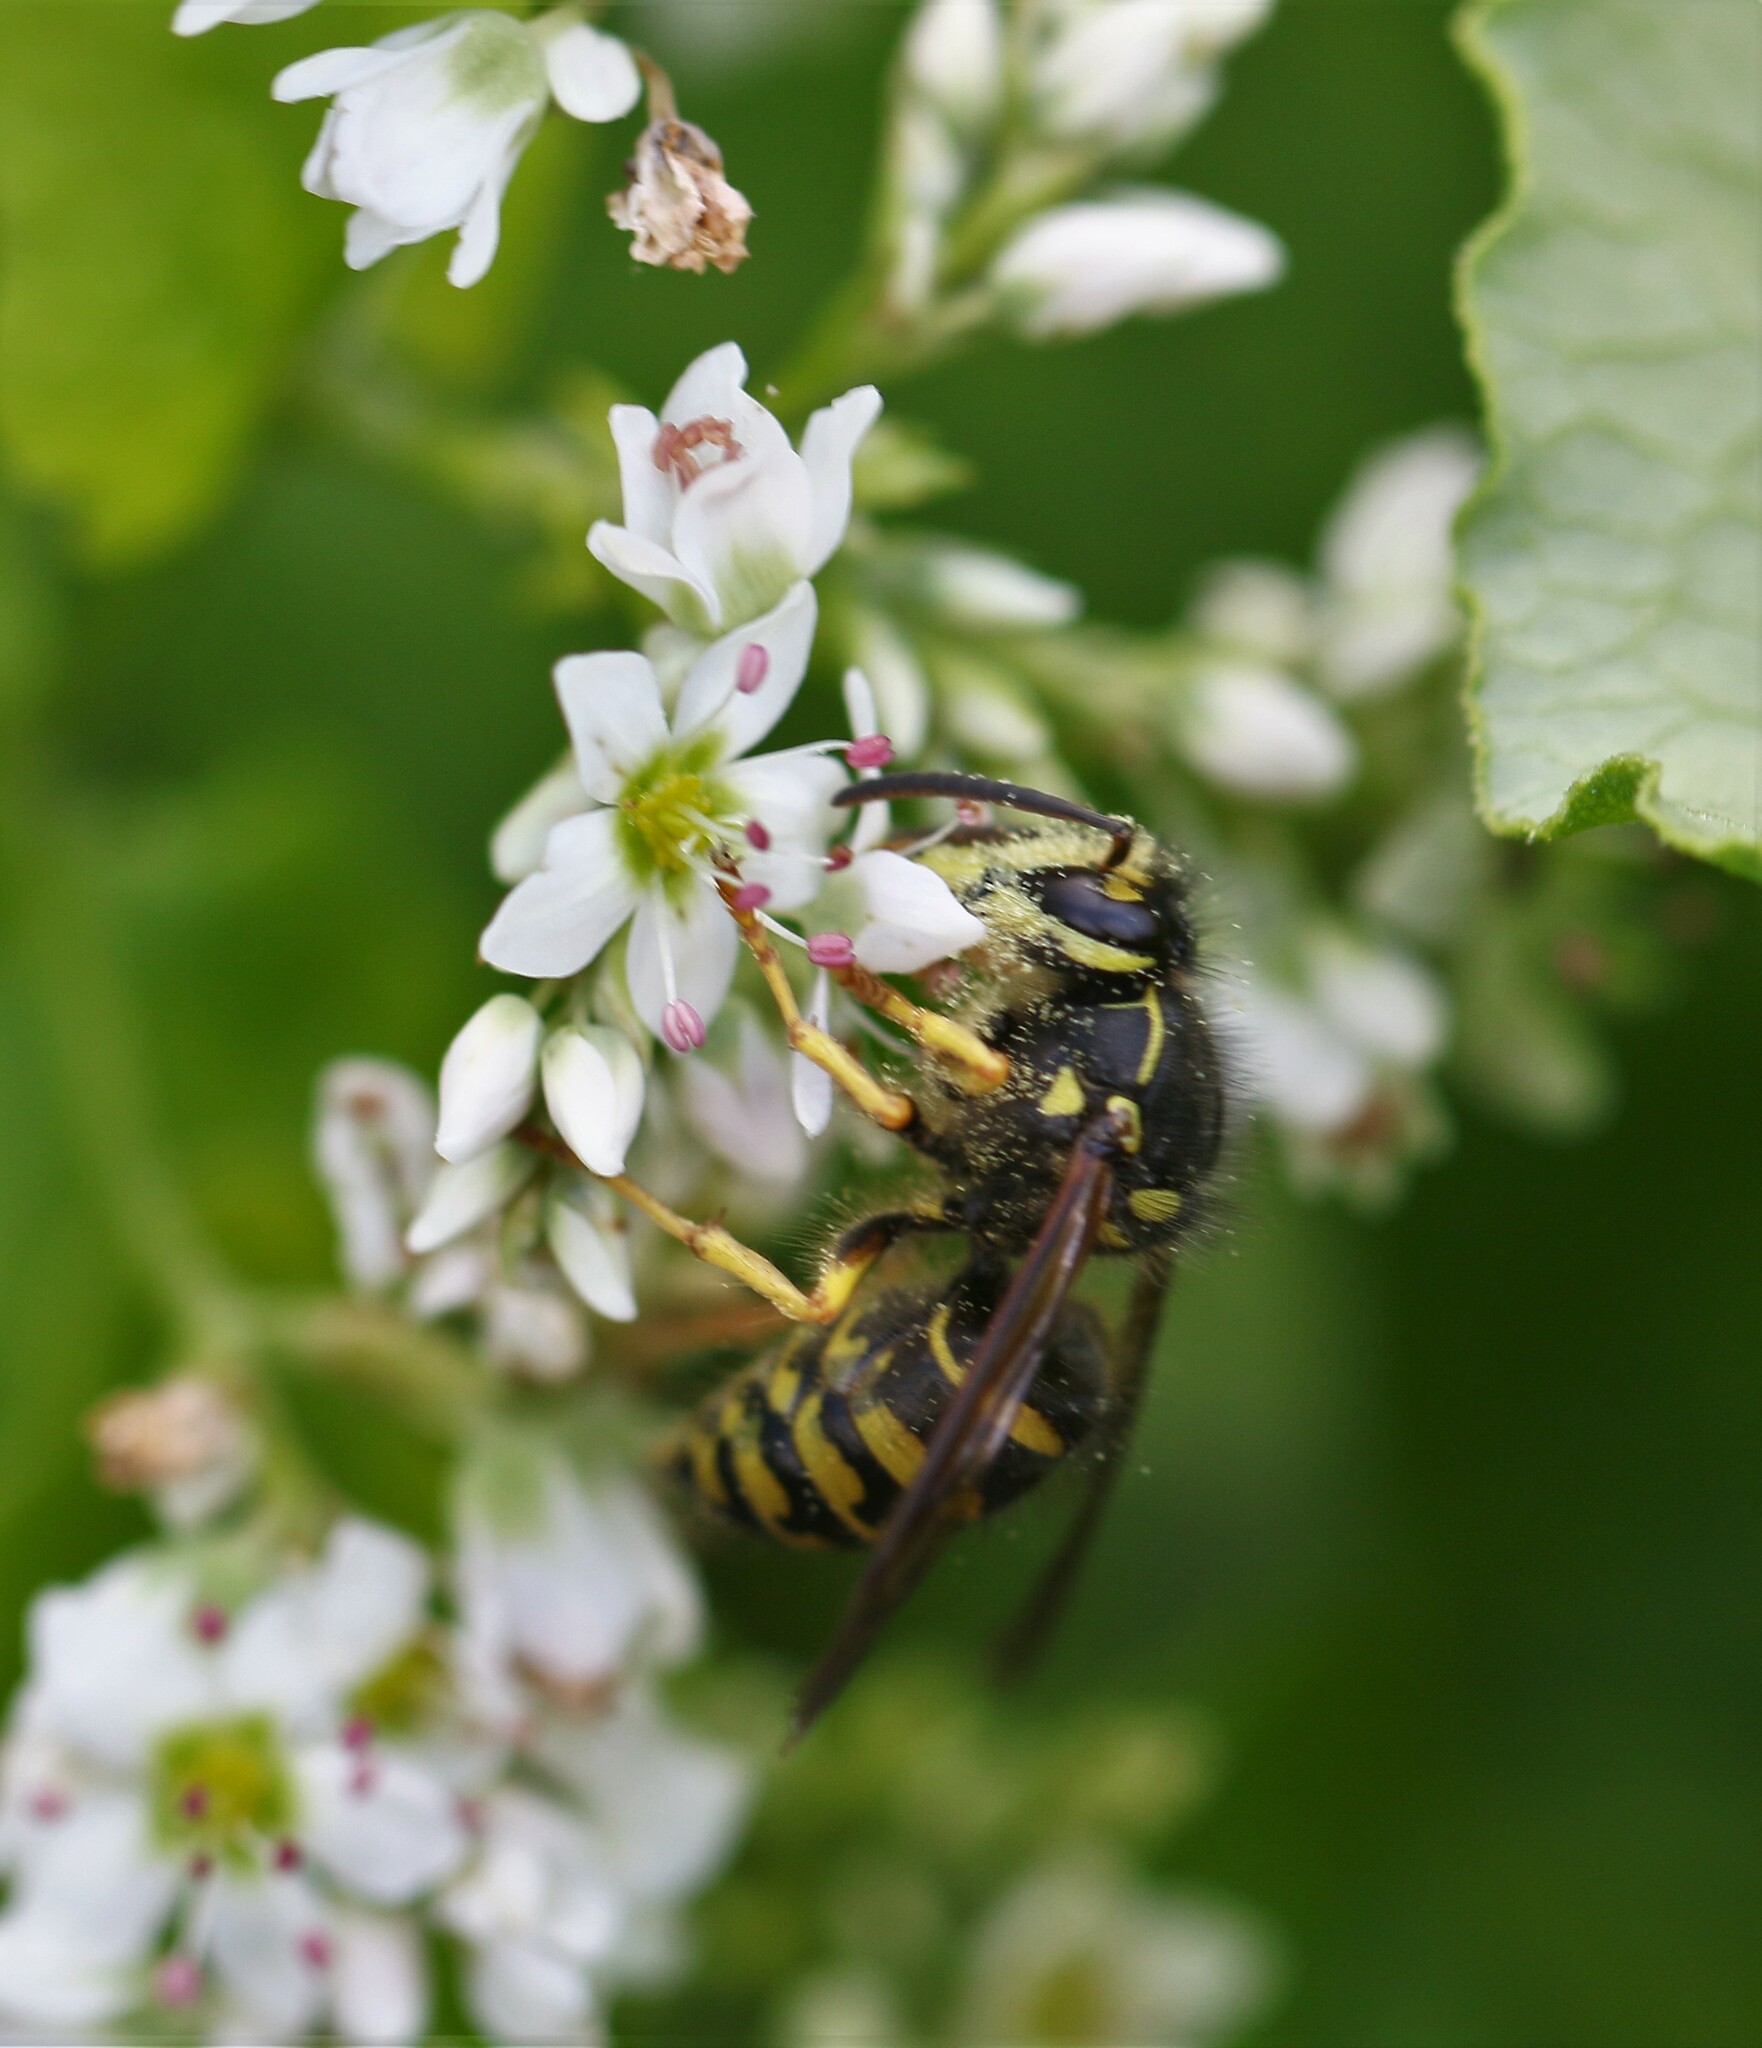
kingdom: Animalia
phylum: Arthropoda
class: Insecta
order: Hymenoptera
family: Vespidae
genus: Dolichovespula
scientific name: Dolichovespula arenaria
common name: Aerial yellowjacket
